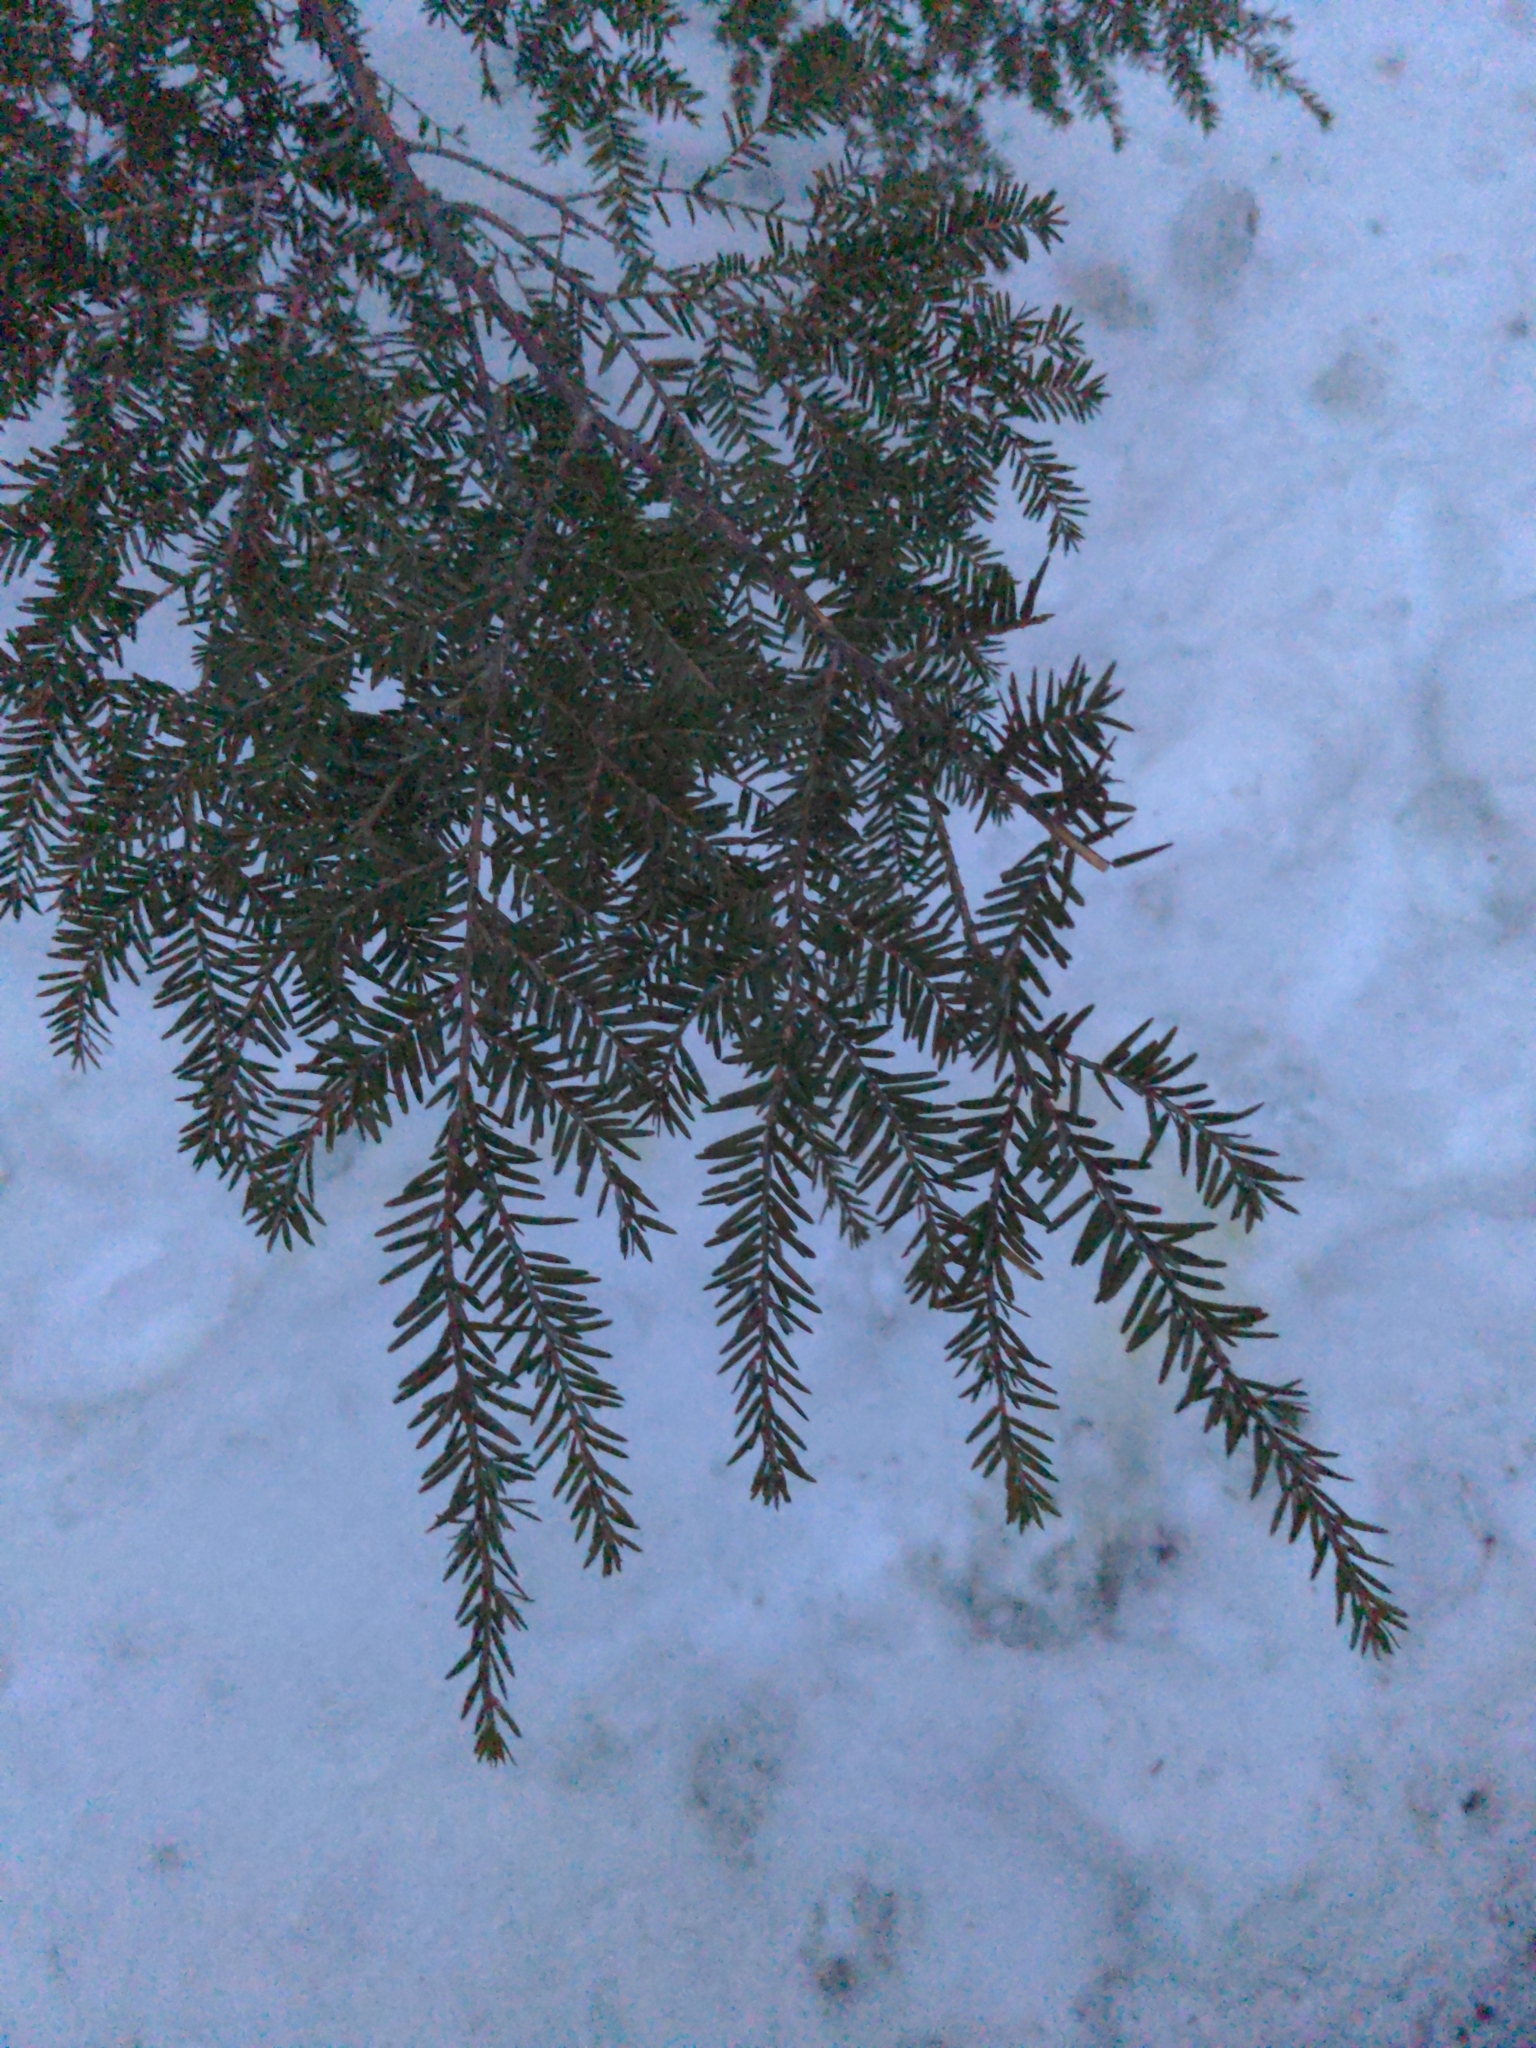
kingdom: Plantae
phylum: Tracheophyta
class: Pinopsida
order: Pinales
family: Pinaceae
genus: Tsuga
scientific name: Tsuga canadensis
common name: Eastern hemlock
